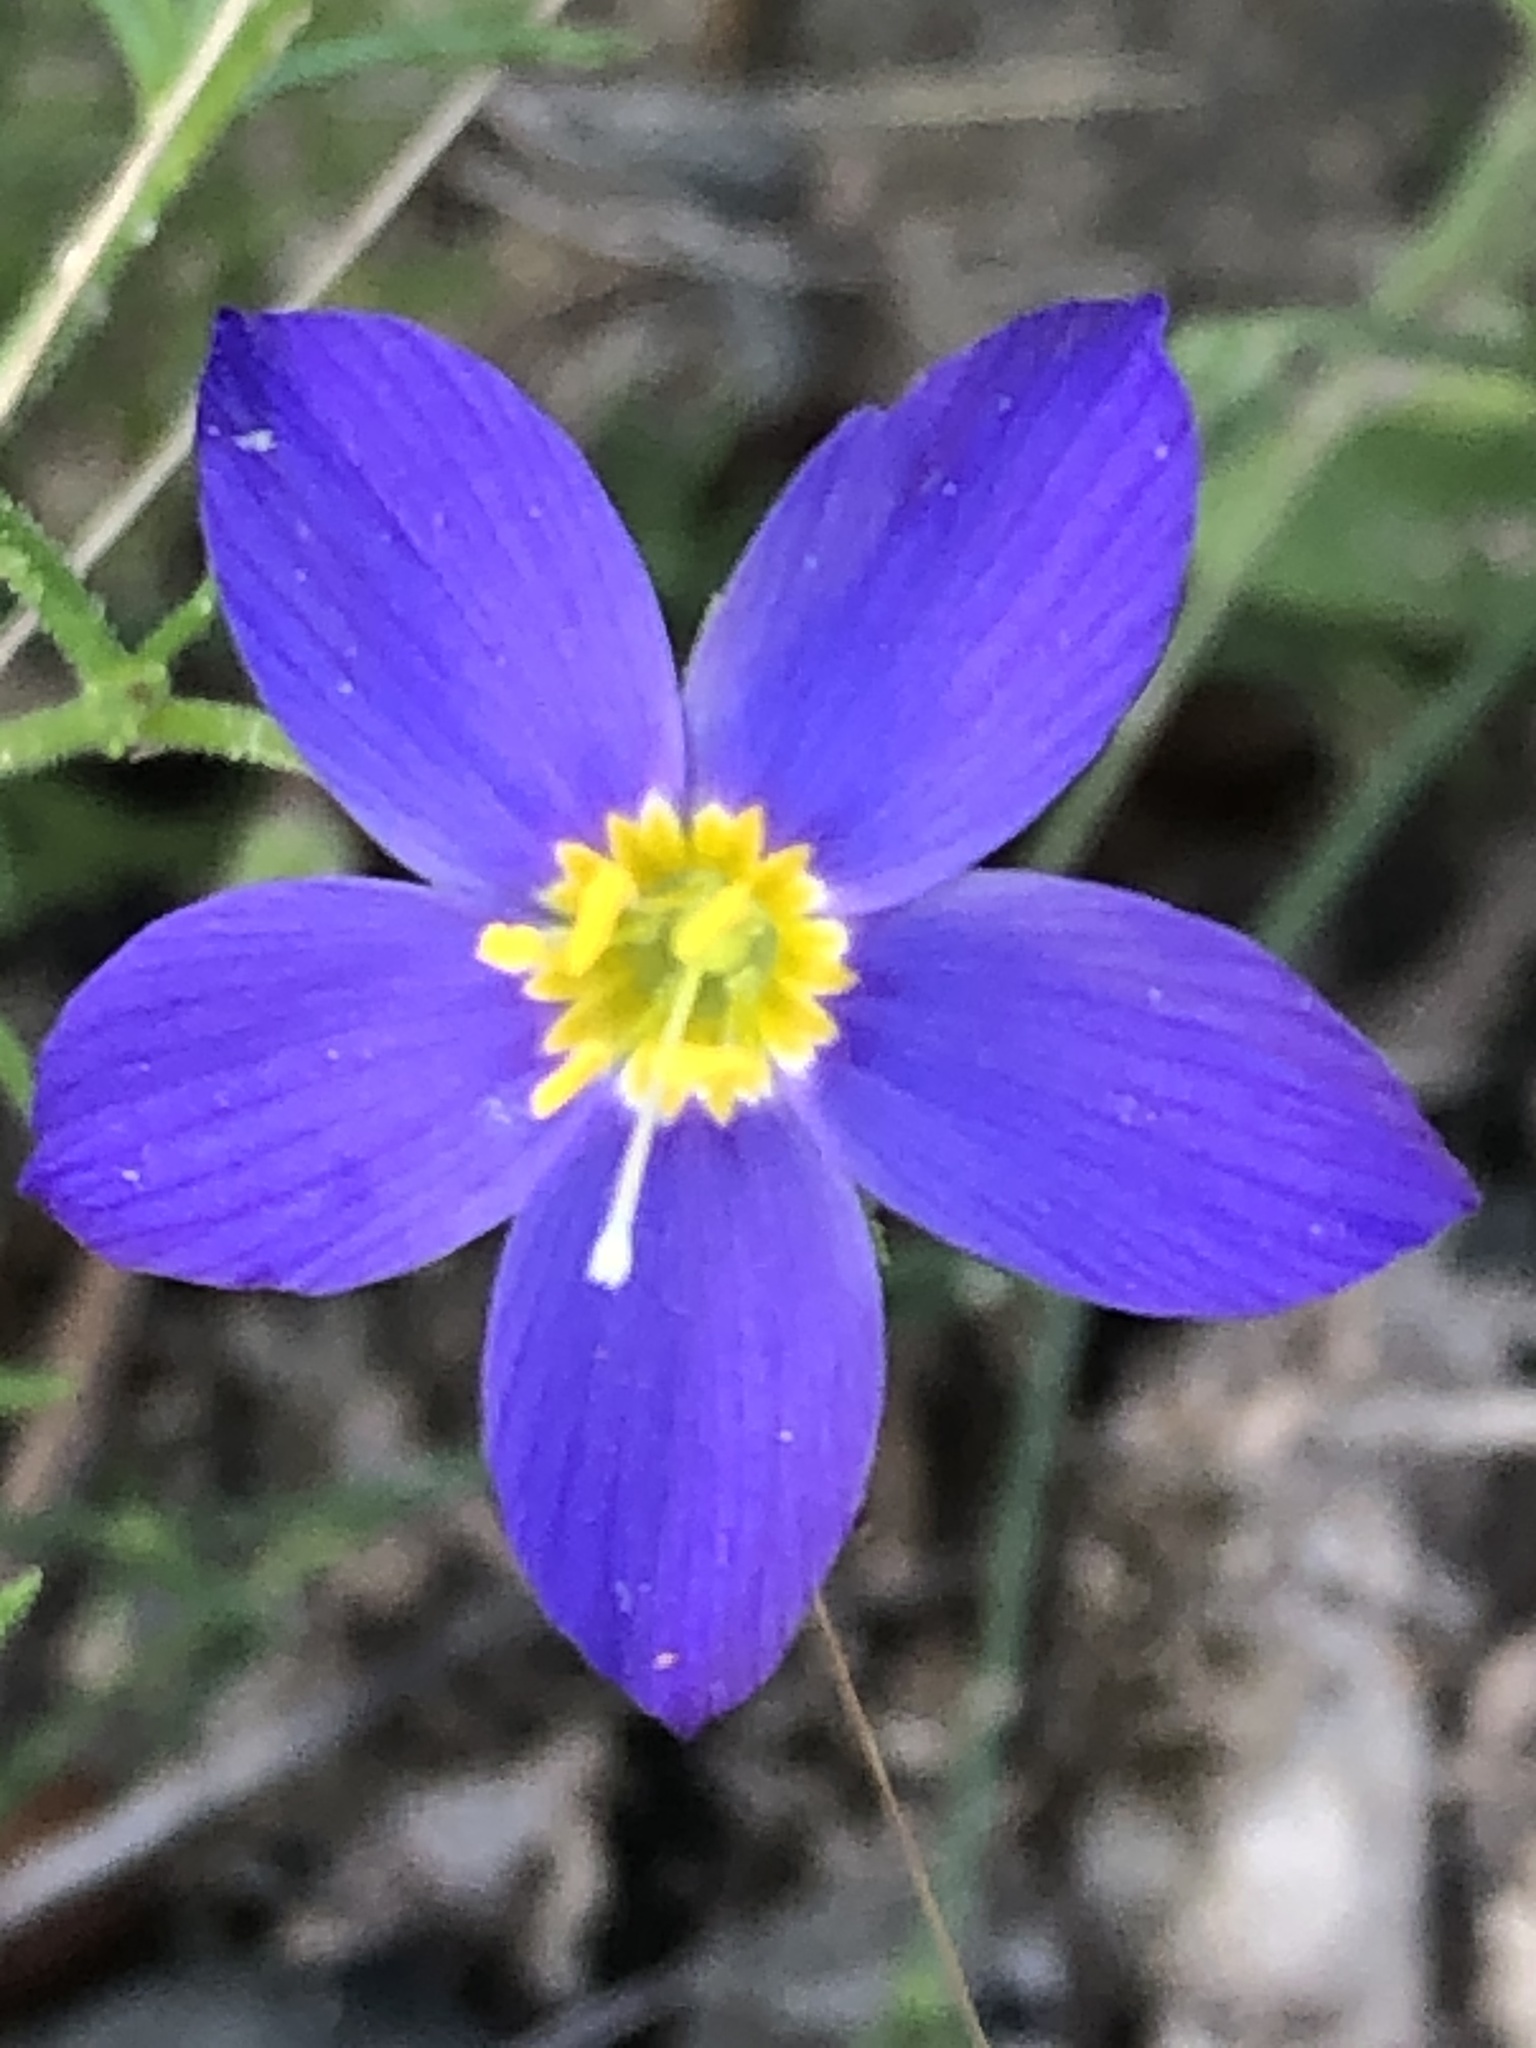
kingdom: Plantae
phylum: Tracheophyta
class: Magnoliopsida
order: Ericales
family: Polemoniaceae
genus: Giliastrum
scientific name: Giliastrum rigidulum
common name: Bluebowls
